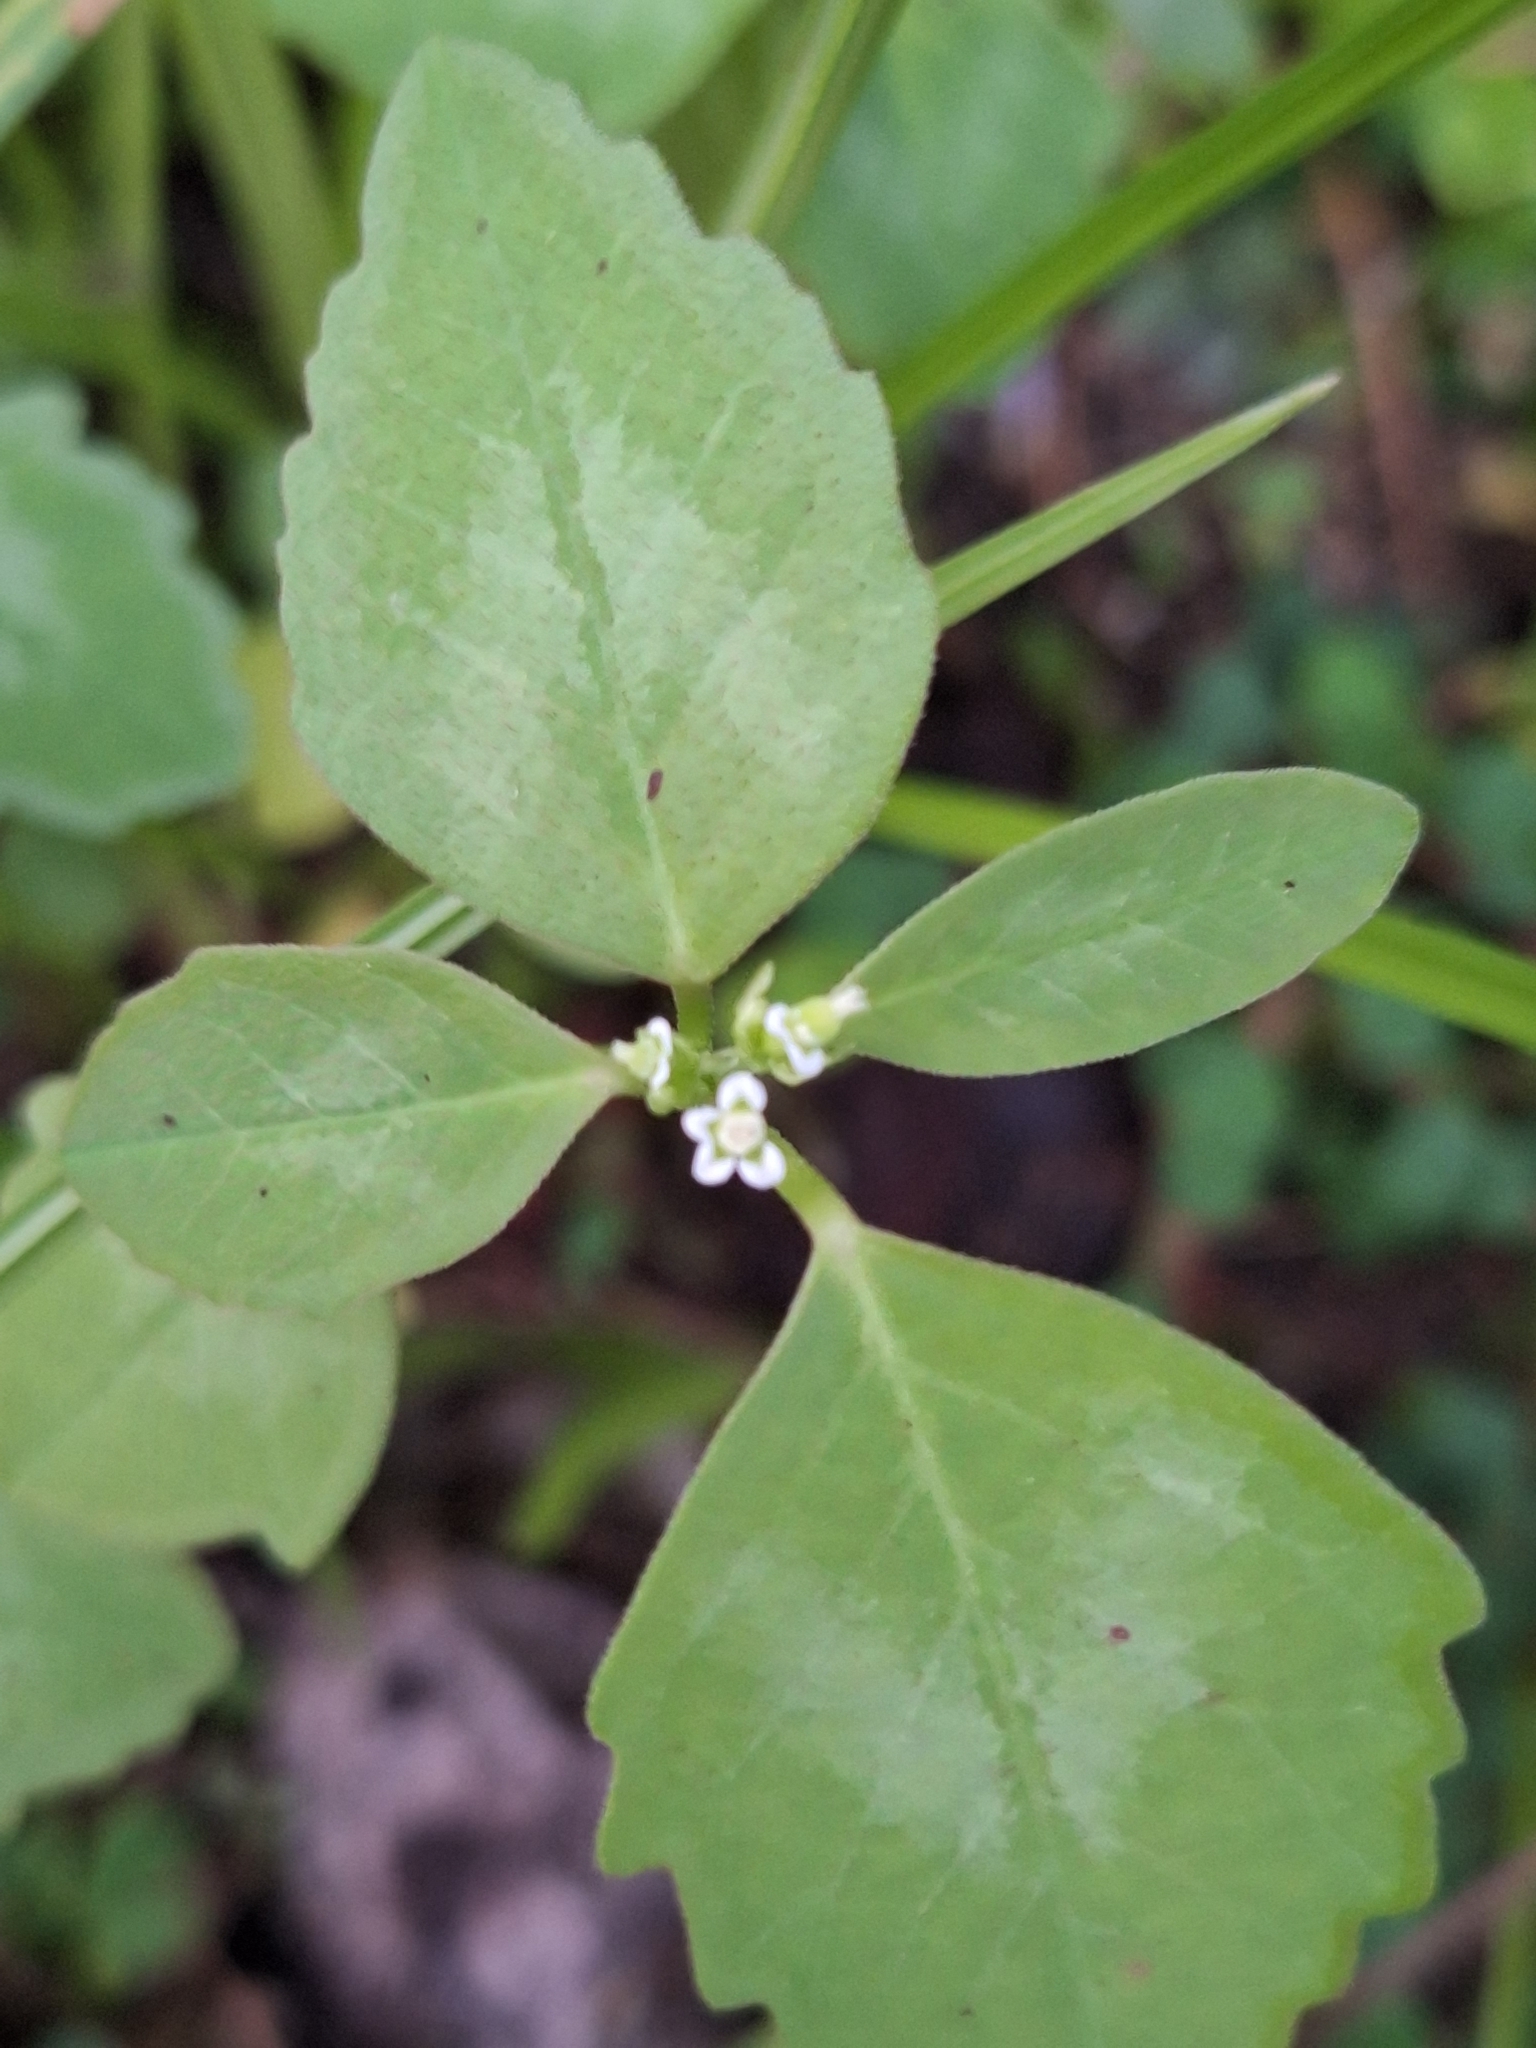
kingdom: Plantae
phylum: Tracheophyta
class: Magnoliopsida
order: Malpighiales
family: Euphorbiaceae
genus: Euphorbia
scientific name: Euphorbia graminea
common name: Grassleaf spurge
